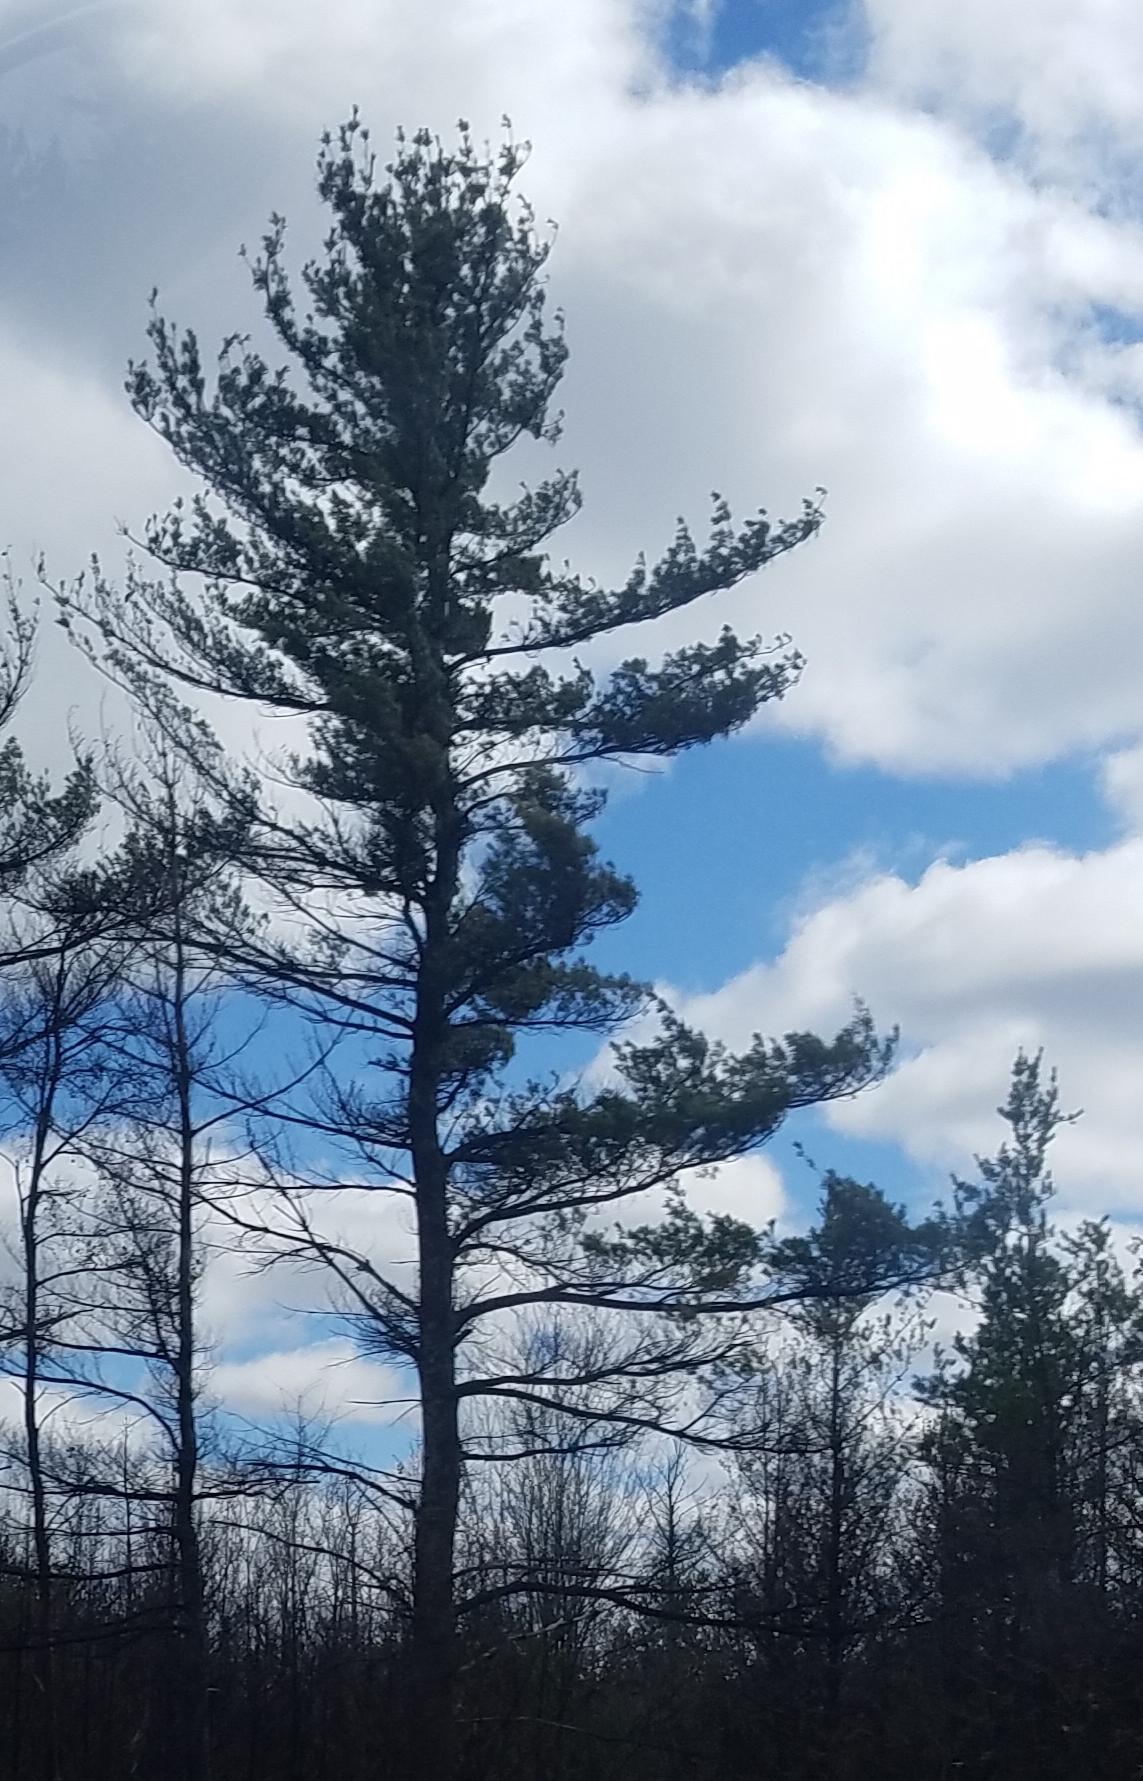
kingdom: Plantae
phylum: Tracheophyta
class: Pinopsida
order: Pinales
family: Pinaceae
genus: Pinus
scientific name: Pinus strobus
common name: Weymouth pine
